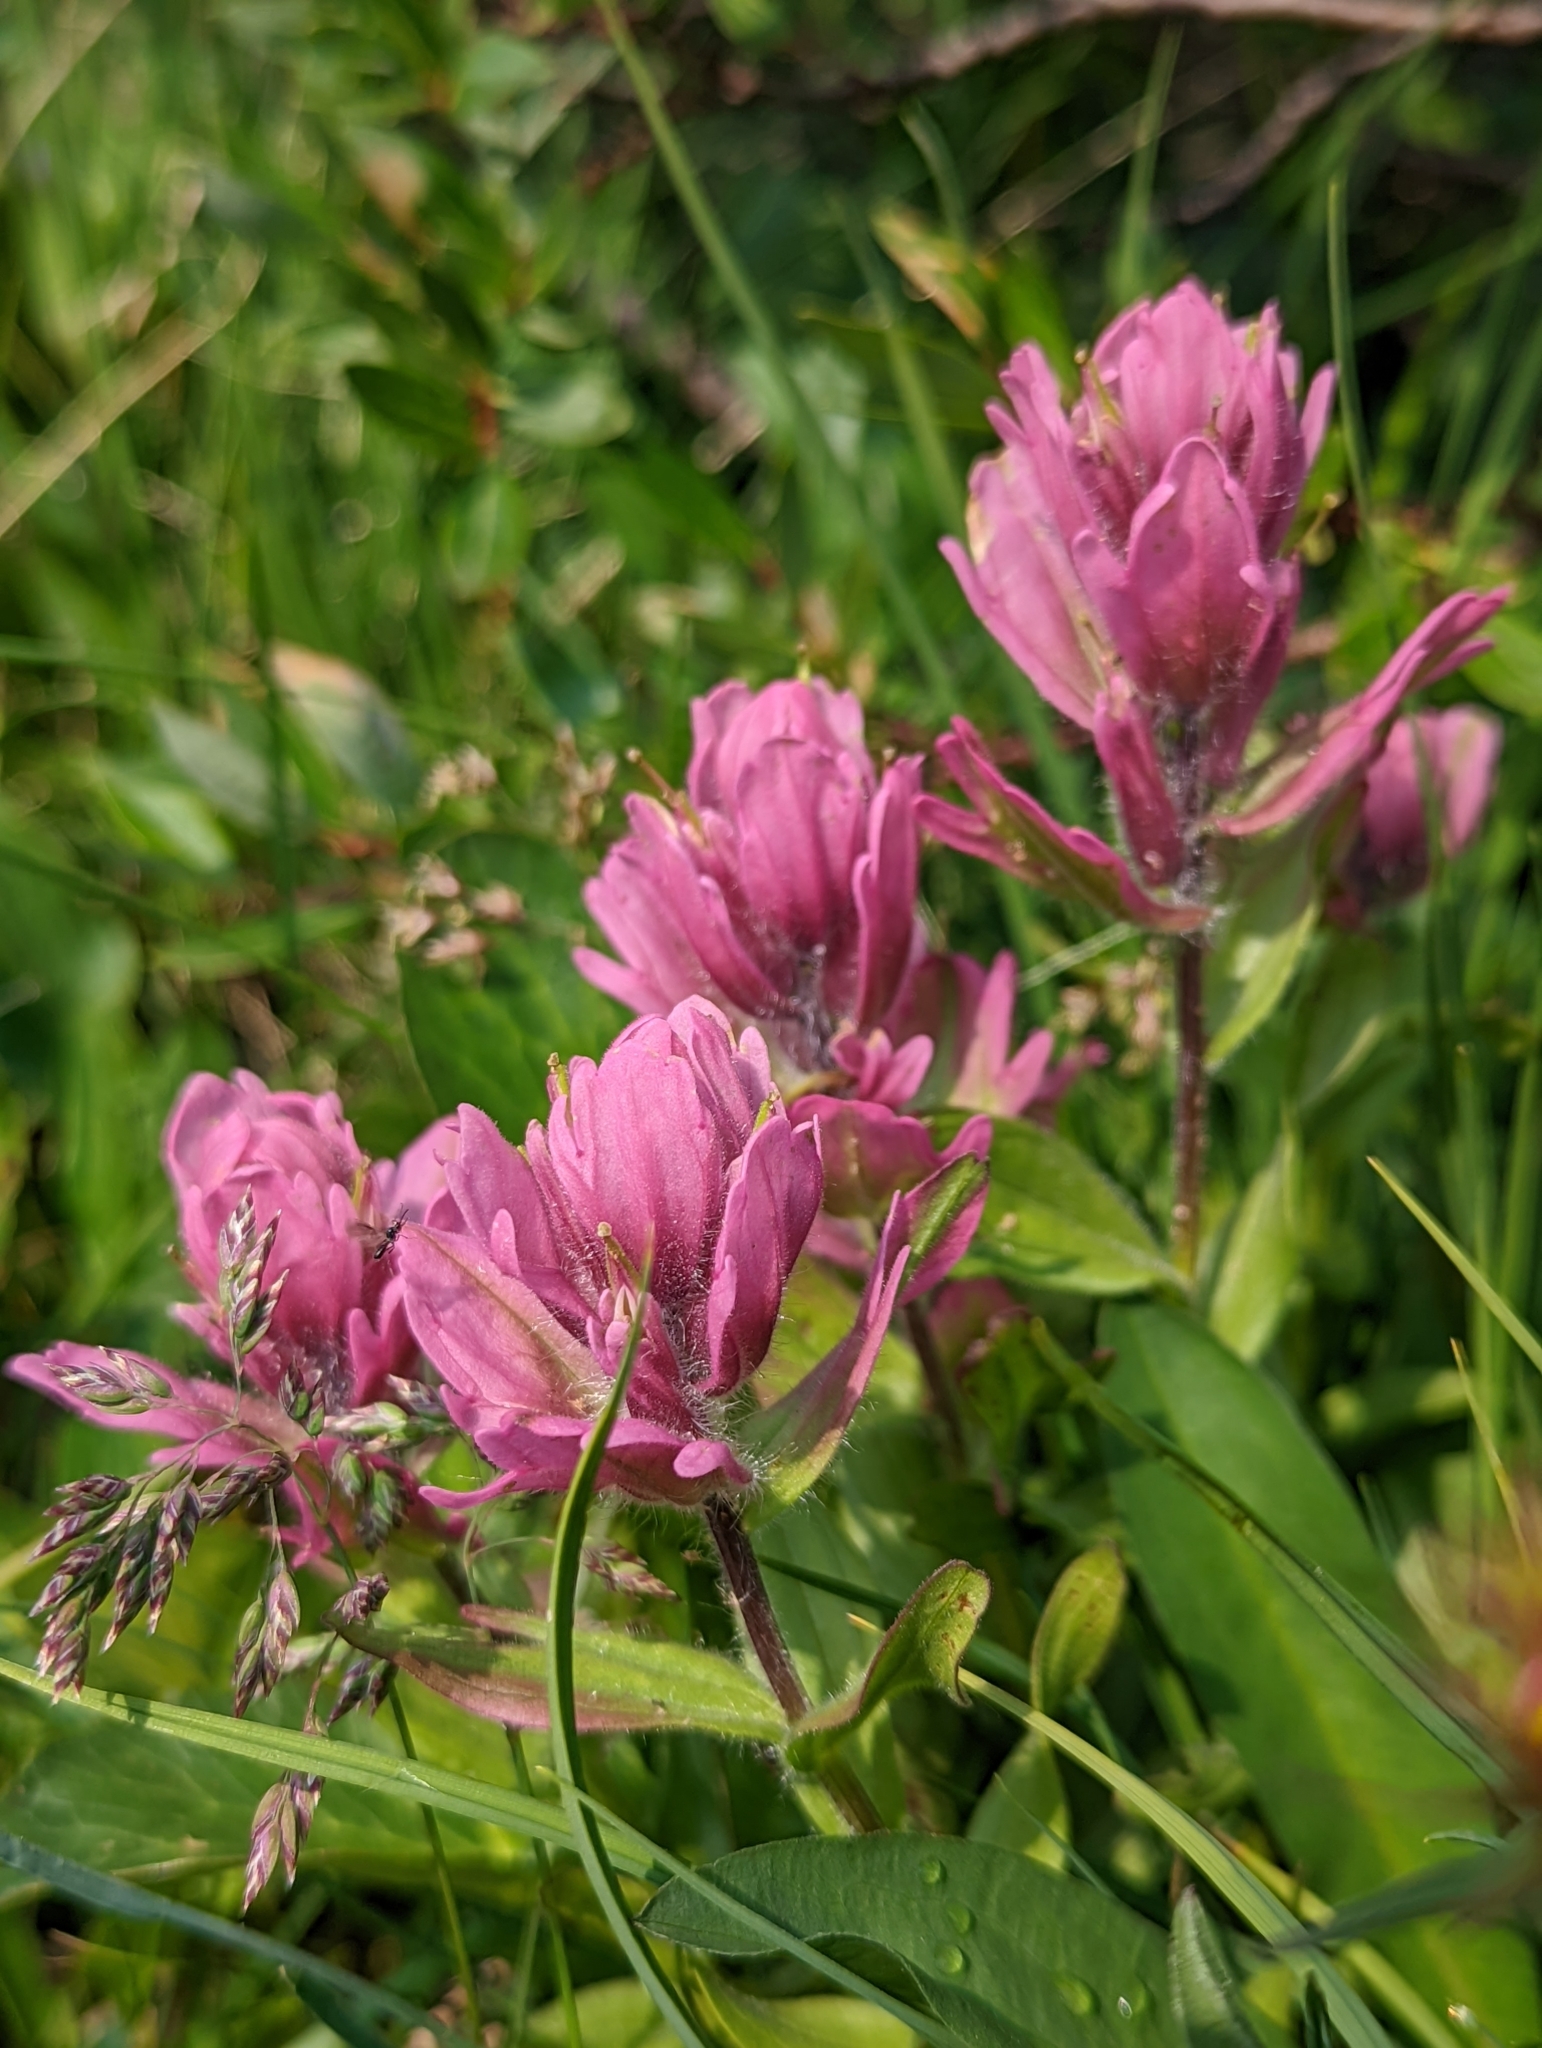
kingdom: Plantae
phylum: Tracheophyta
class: Magnoliopsida
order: Lamiales
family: Orobanchaceae
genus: Castilleja
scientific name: Castilleja rhexifolia
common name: Rocky mountain paintbrush
